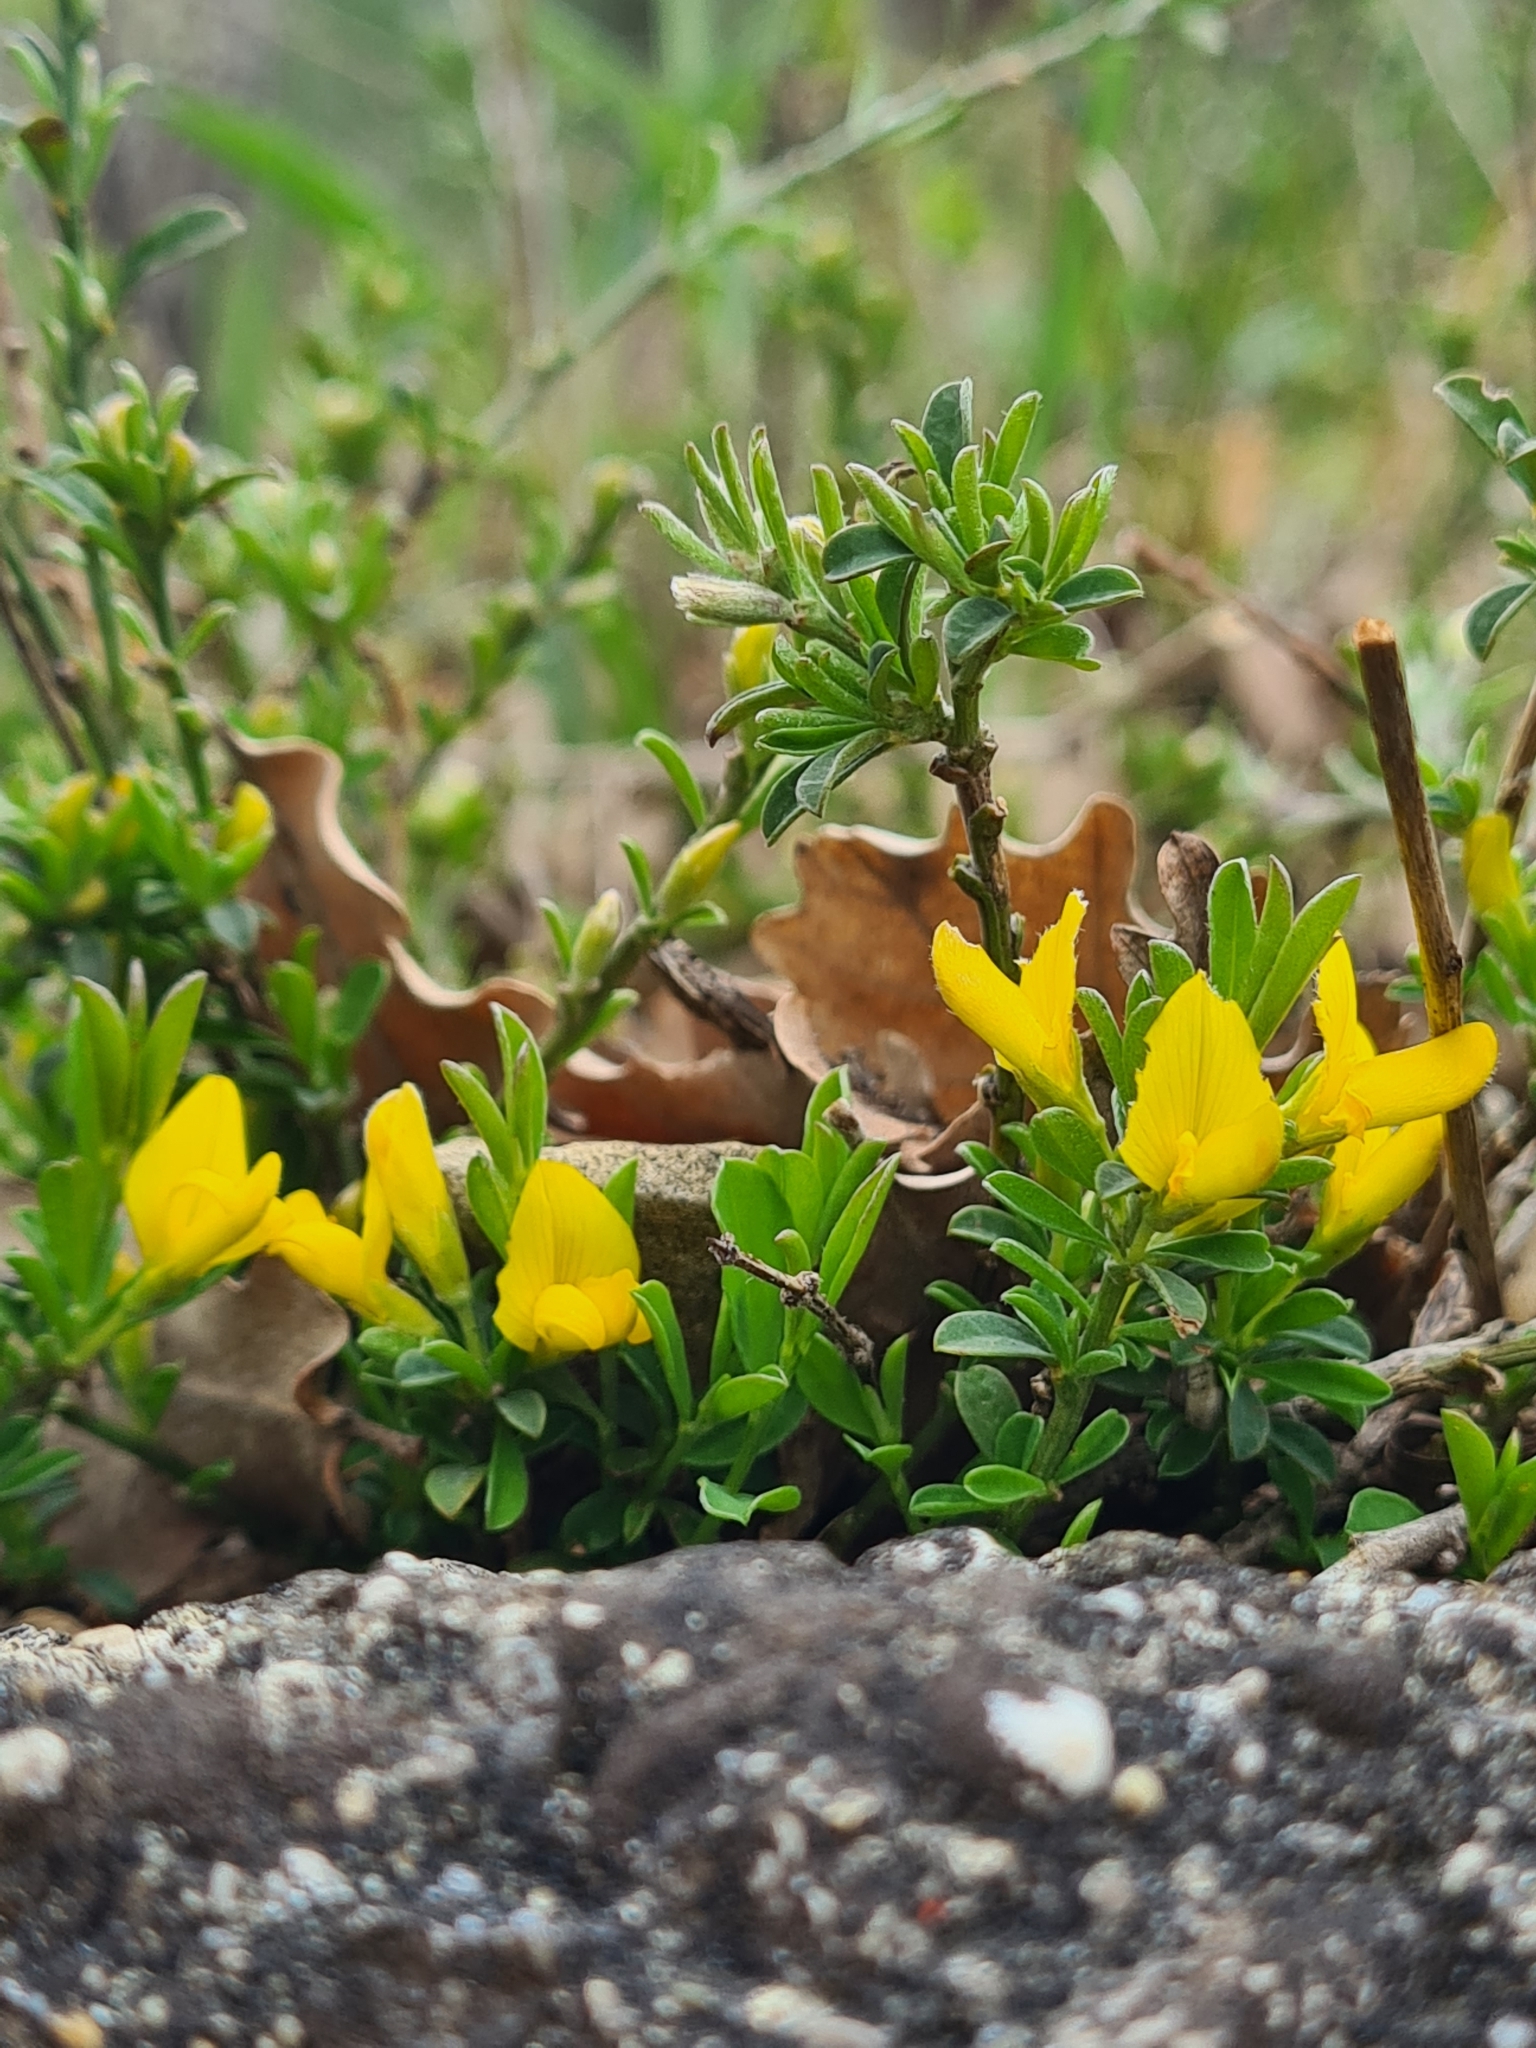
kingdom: Plantae
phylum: Tracheophyta
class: Magnoliopsida
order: Fabales
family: Fabaceae
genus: Genista
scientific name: Genista pilosa
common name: Hairy greenweed
